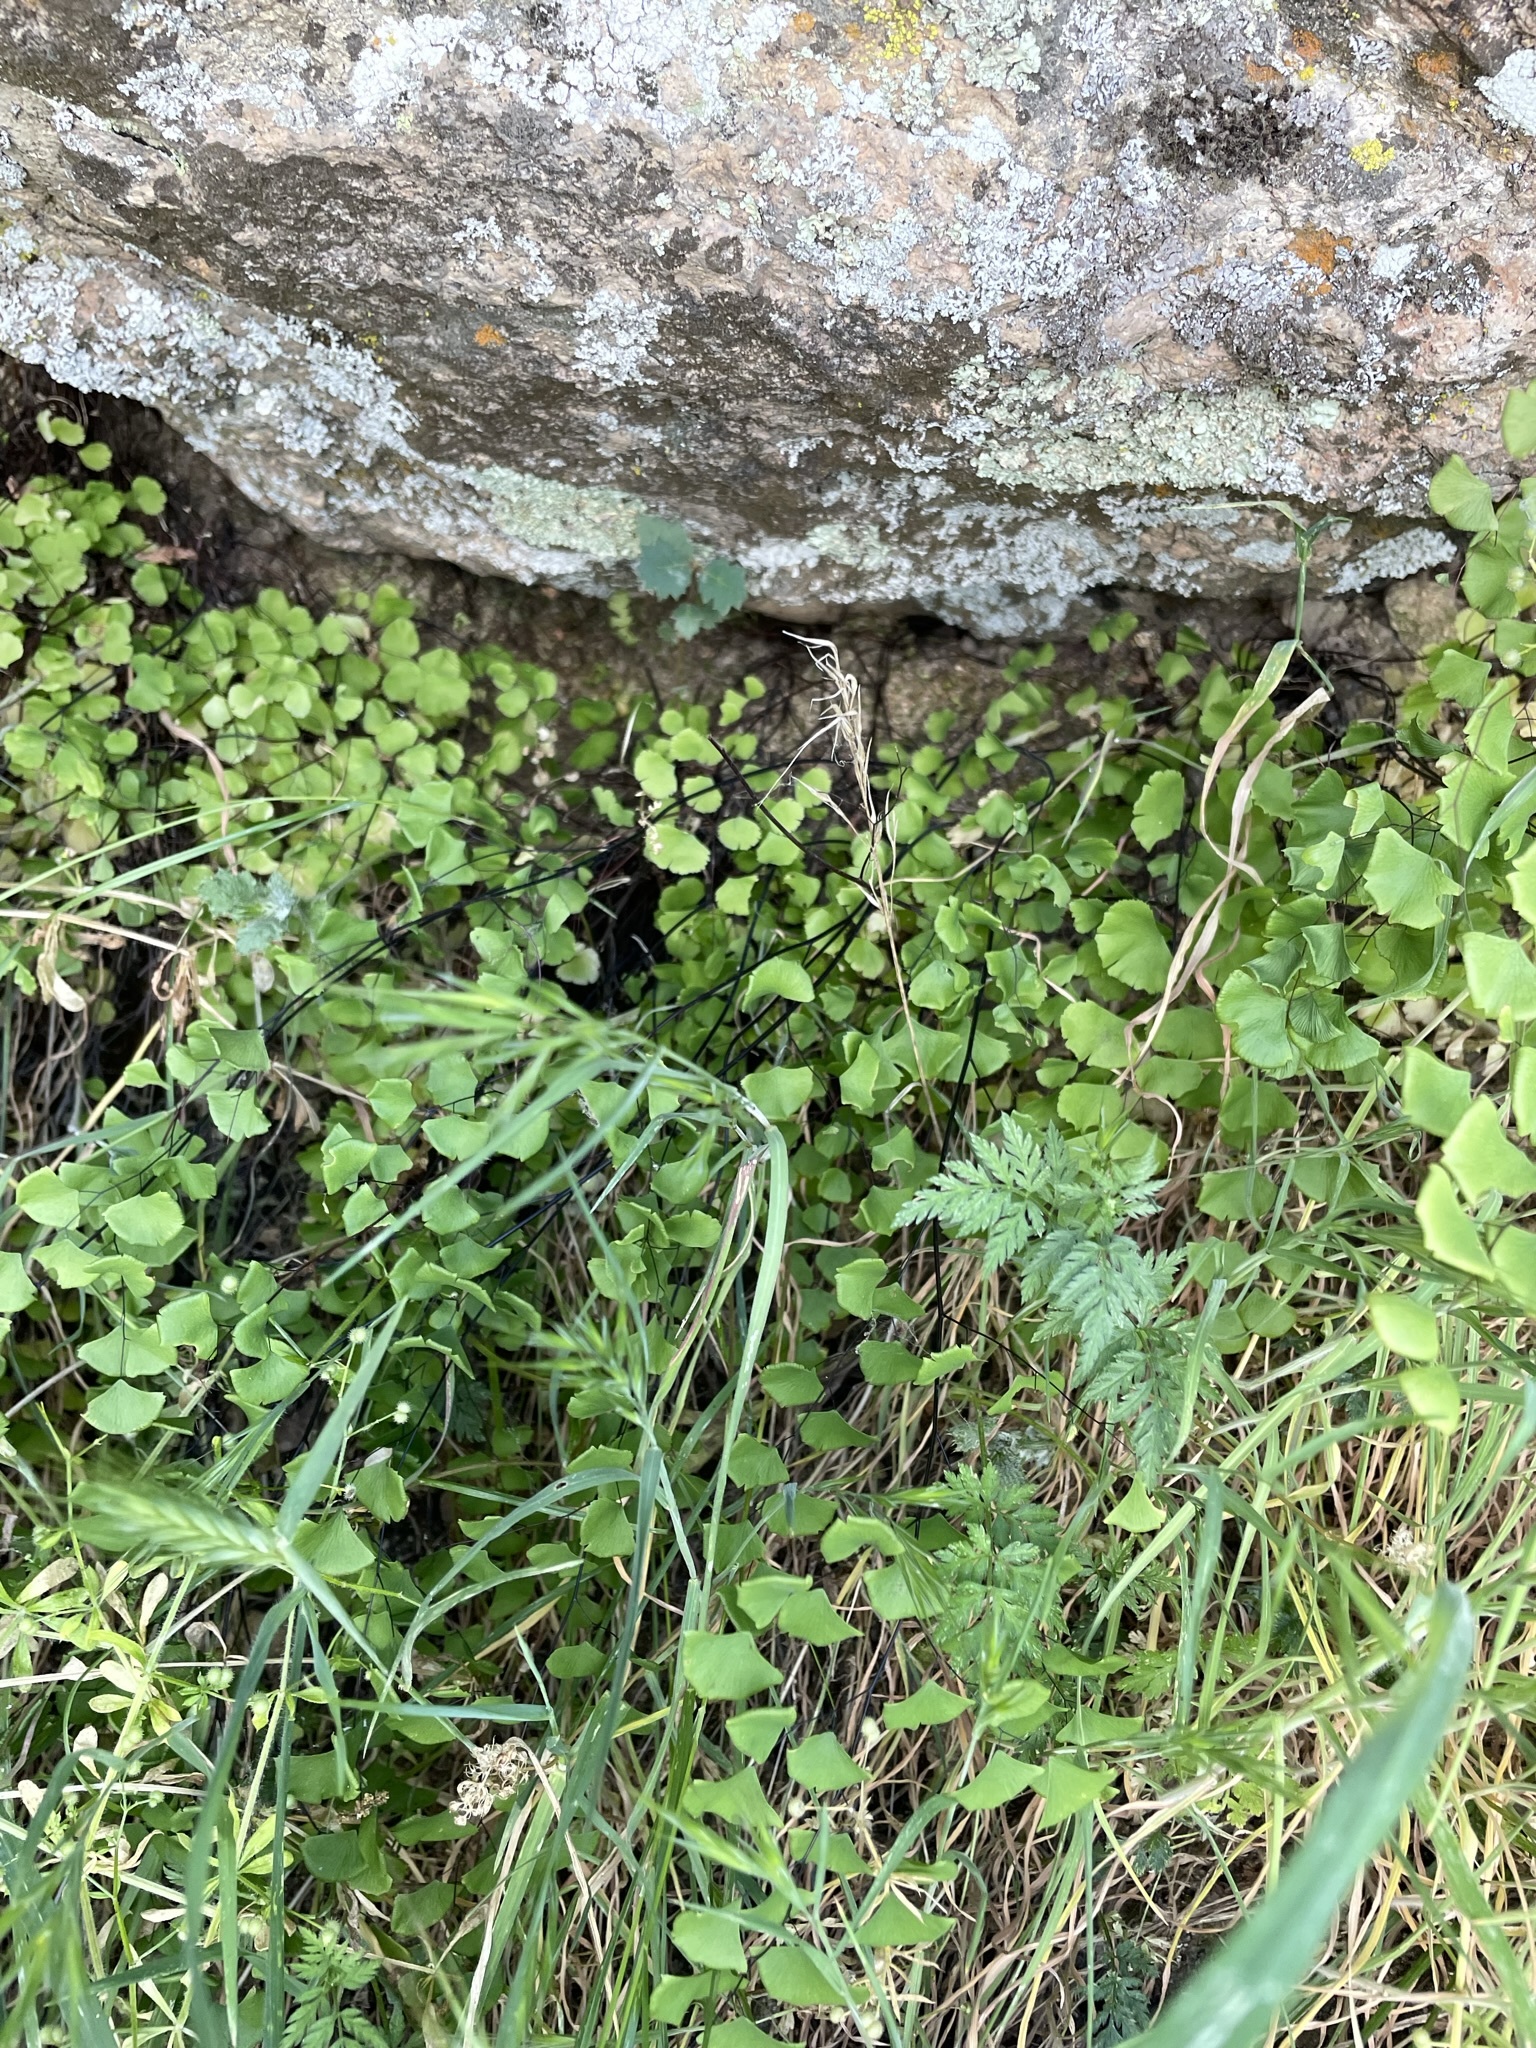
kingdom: Plantae
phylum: Tracheophyta
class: Polypodiopsida
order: Polypodiales
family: Pteridaceae
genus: Adiantum
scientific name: Adiantum jordanii
